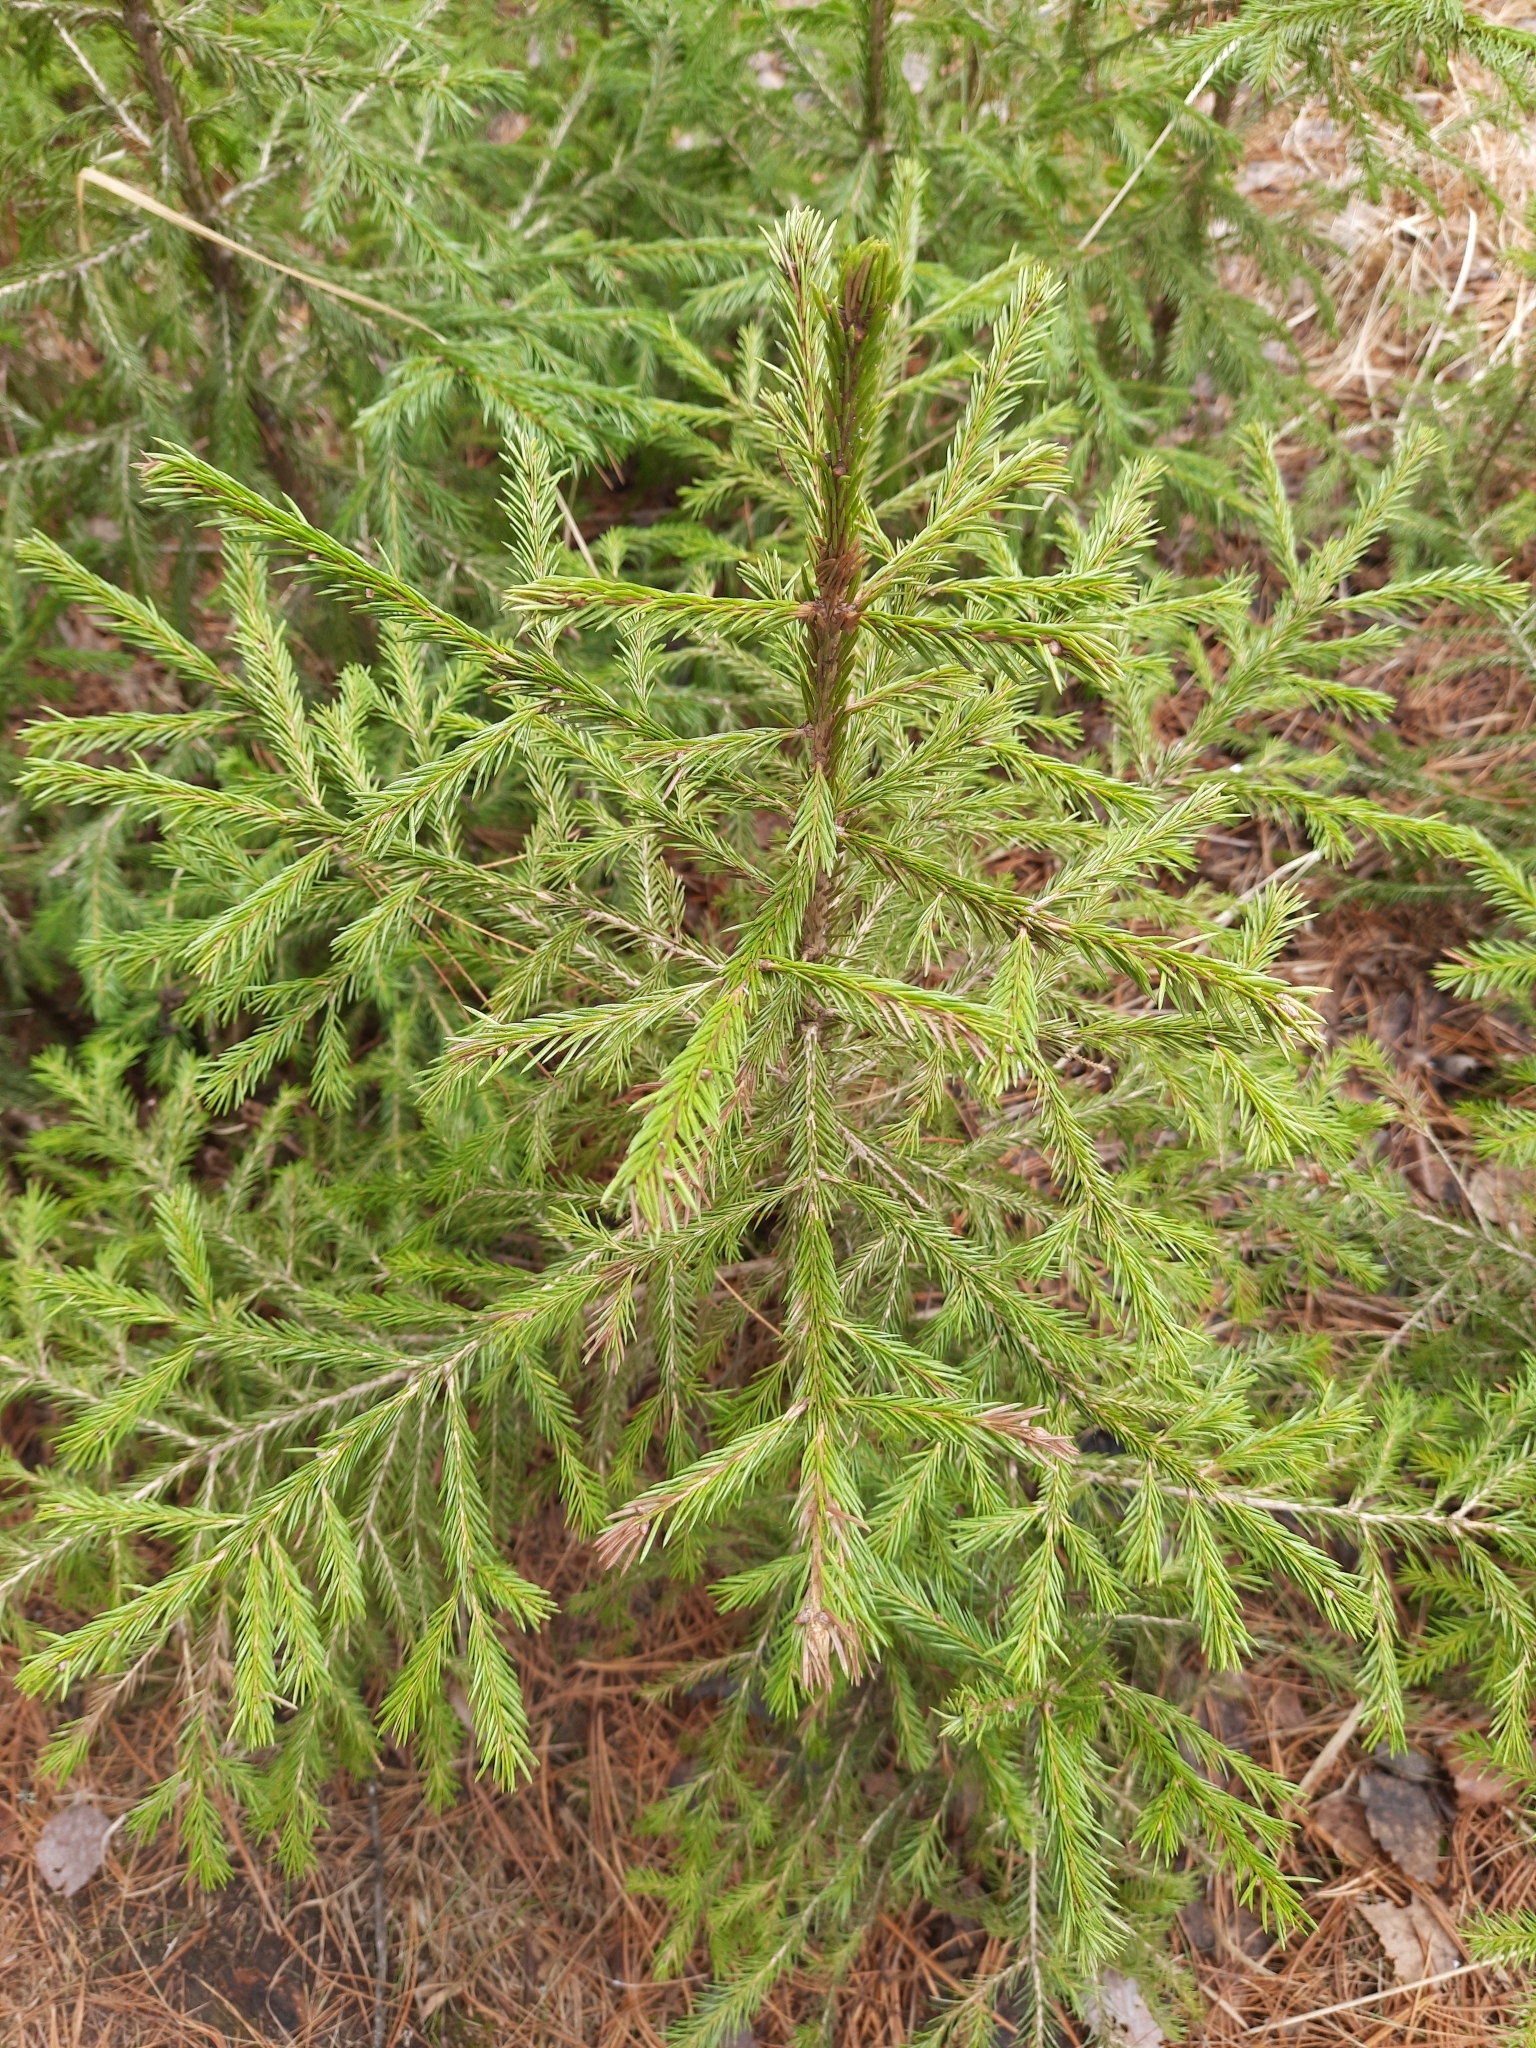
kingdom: Plantae
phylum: Tracheophyta
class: Pinopsida
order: Pinales
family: Pinaceae
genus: Picea
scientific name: Picea obovata
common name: Siberian spruce
